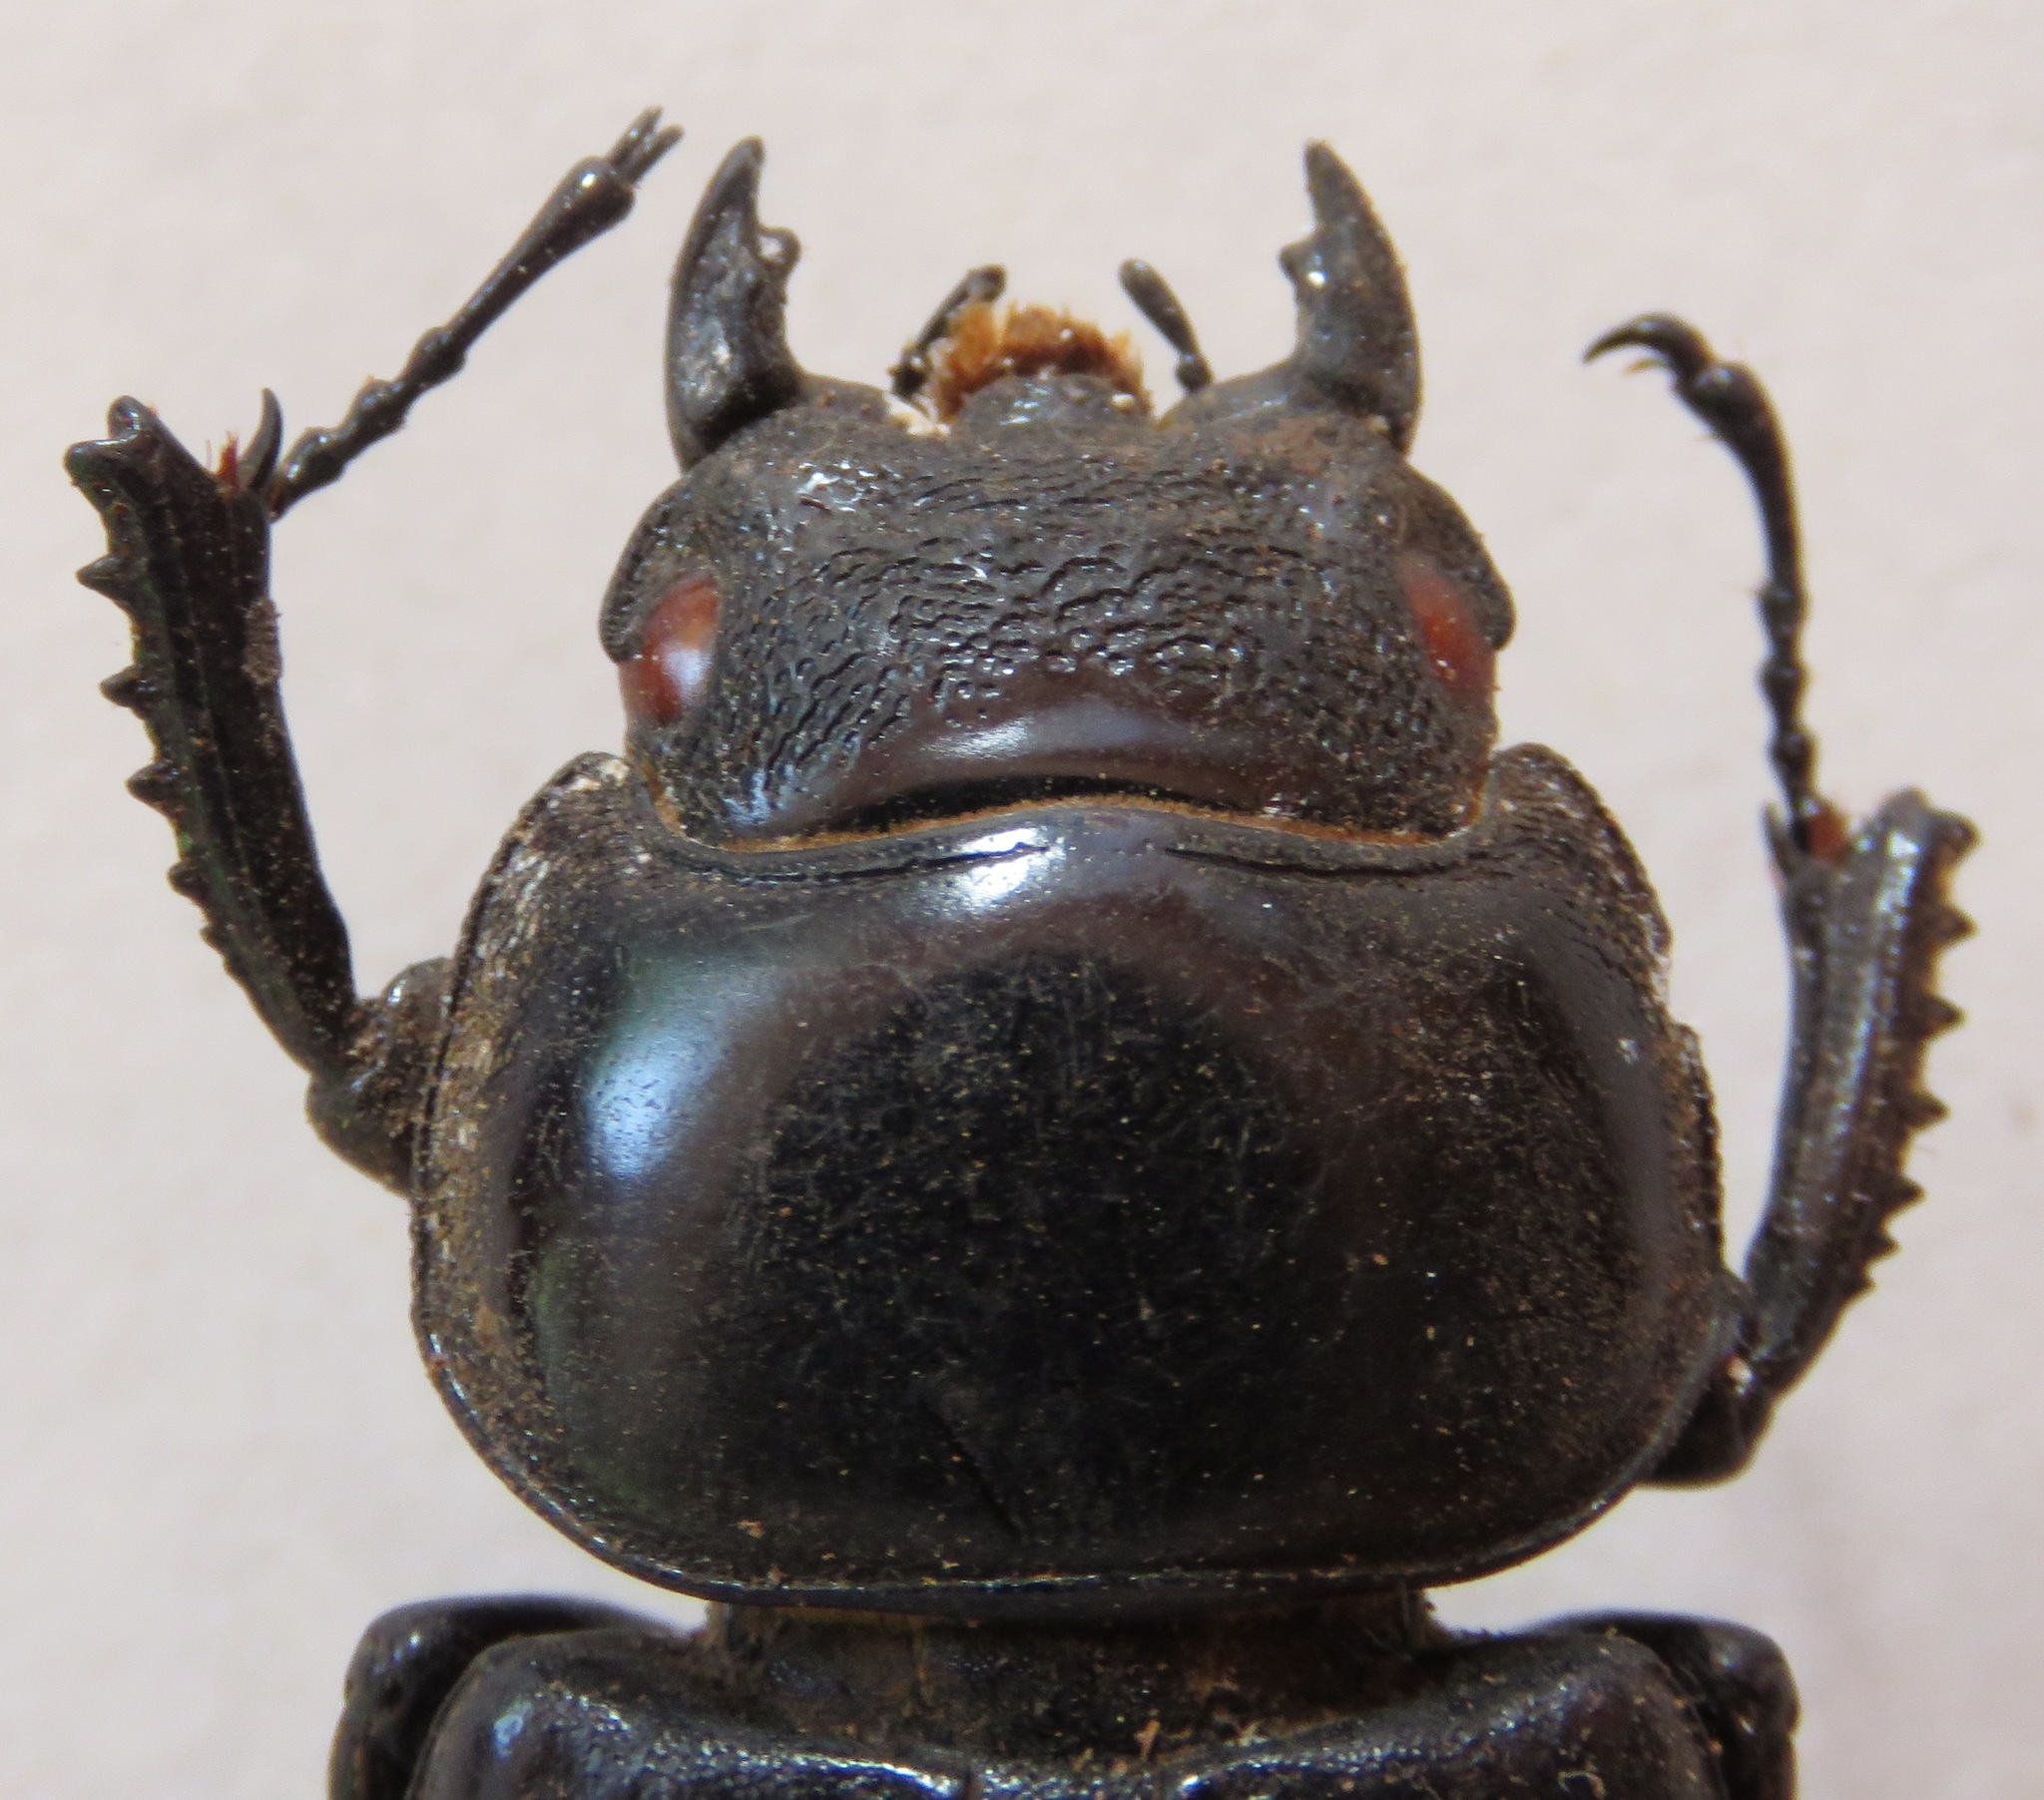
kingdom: Animalia
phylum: Arthropoda
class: Insecta
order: Coleoptera
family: Lucanidae
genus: Dorcus
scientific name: Dorcus antaeus
